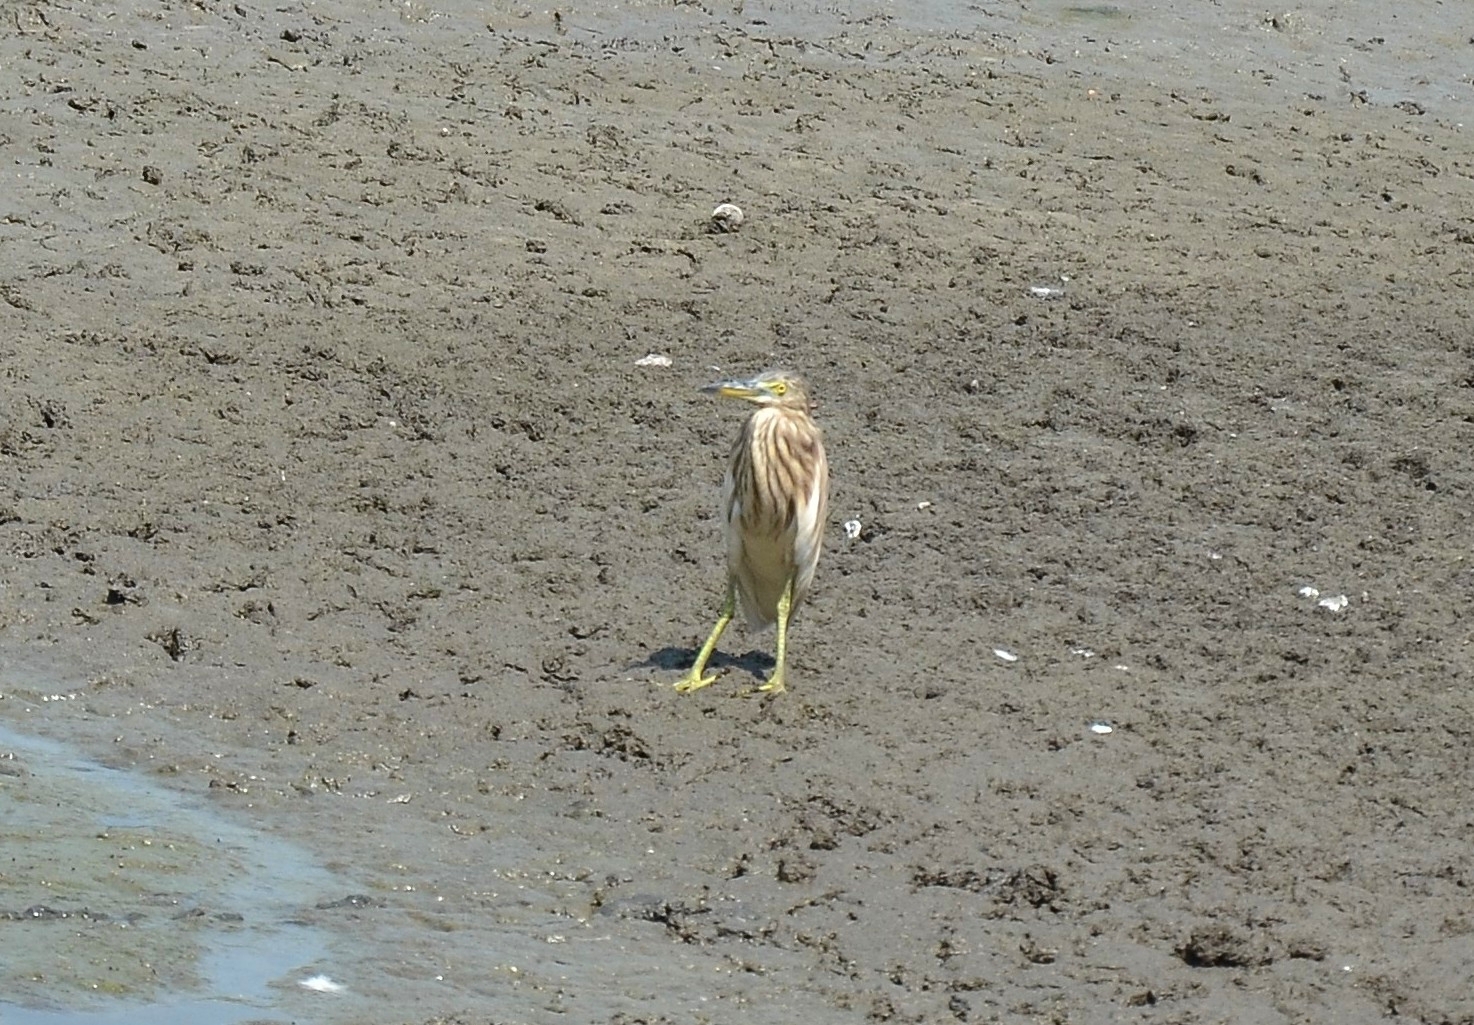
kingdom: Animalia
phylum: Chordata
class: Aves
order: Pelecaniformes
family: Ardeidae
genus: Ardeola
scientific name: Ardeola grayii
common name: Indian pond heron
